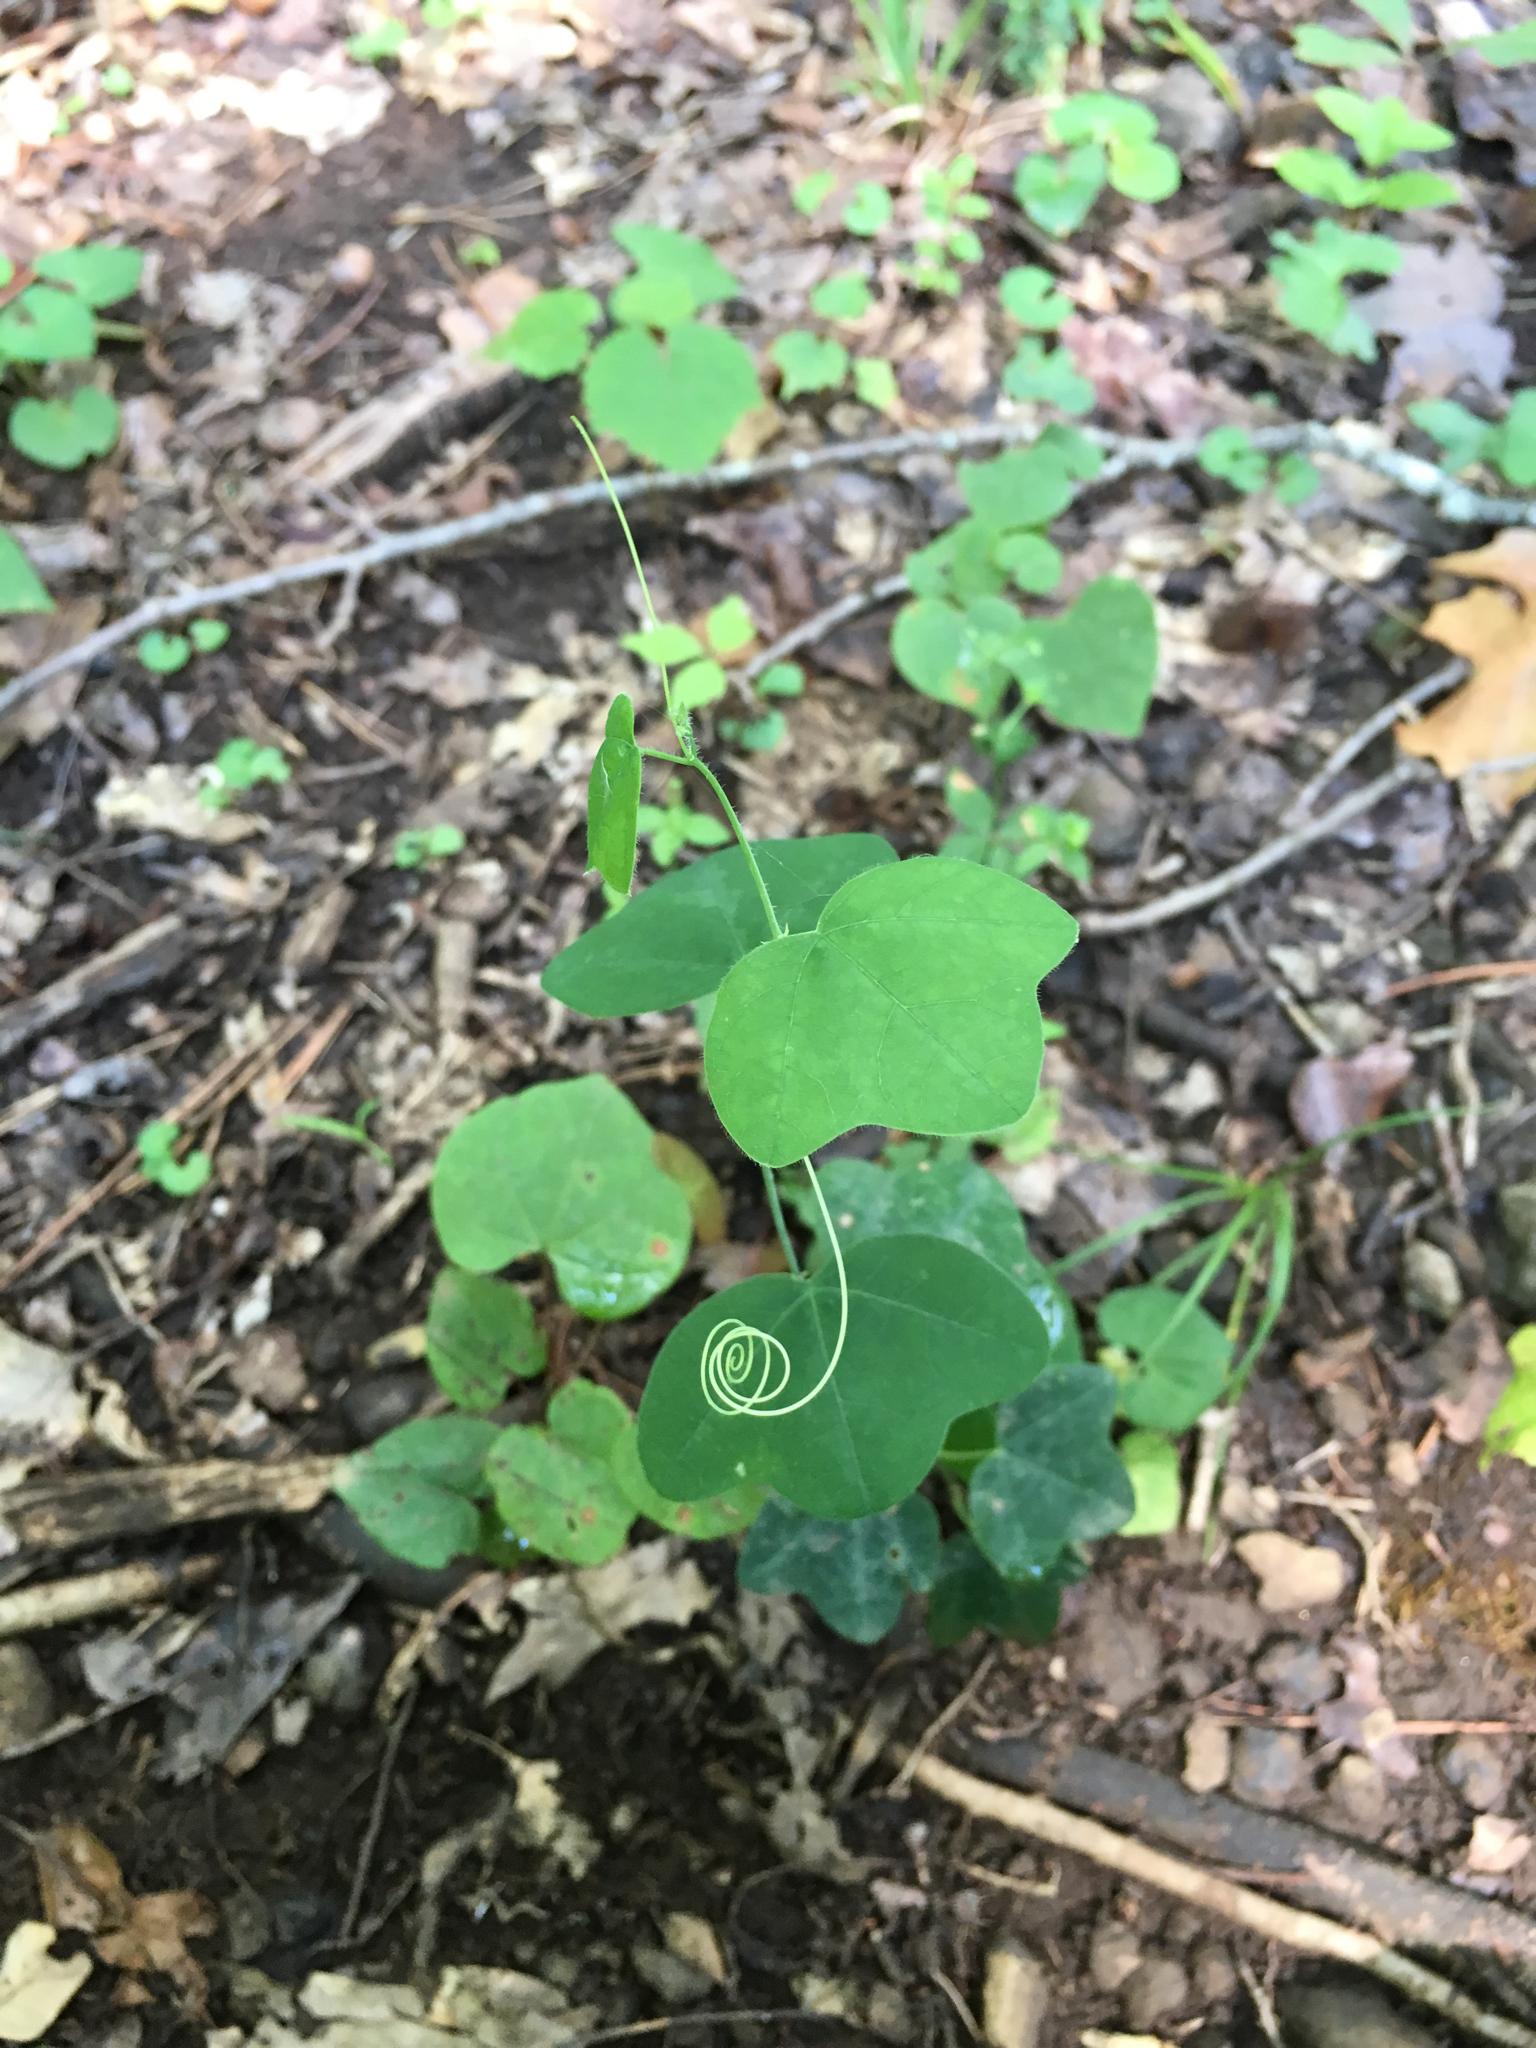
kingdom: Plantae
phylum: Tracheophyta
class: Magnoliopsida
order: Malpighiales
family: Passifloraceae
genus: Passiflora
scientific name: Passiflora lutea
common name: Yellow passionflower
